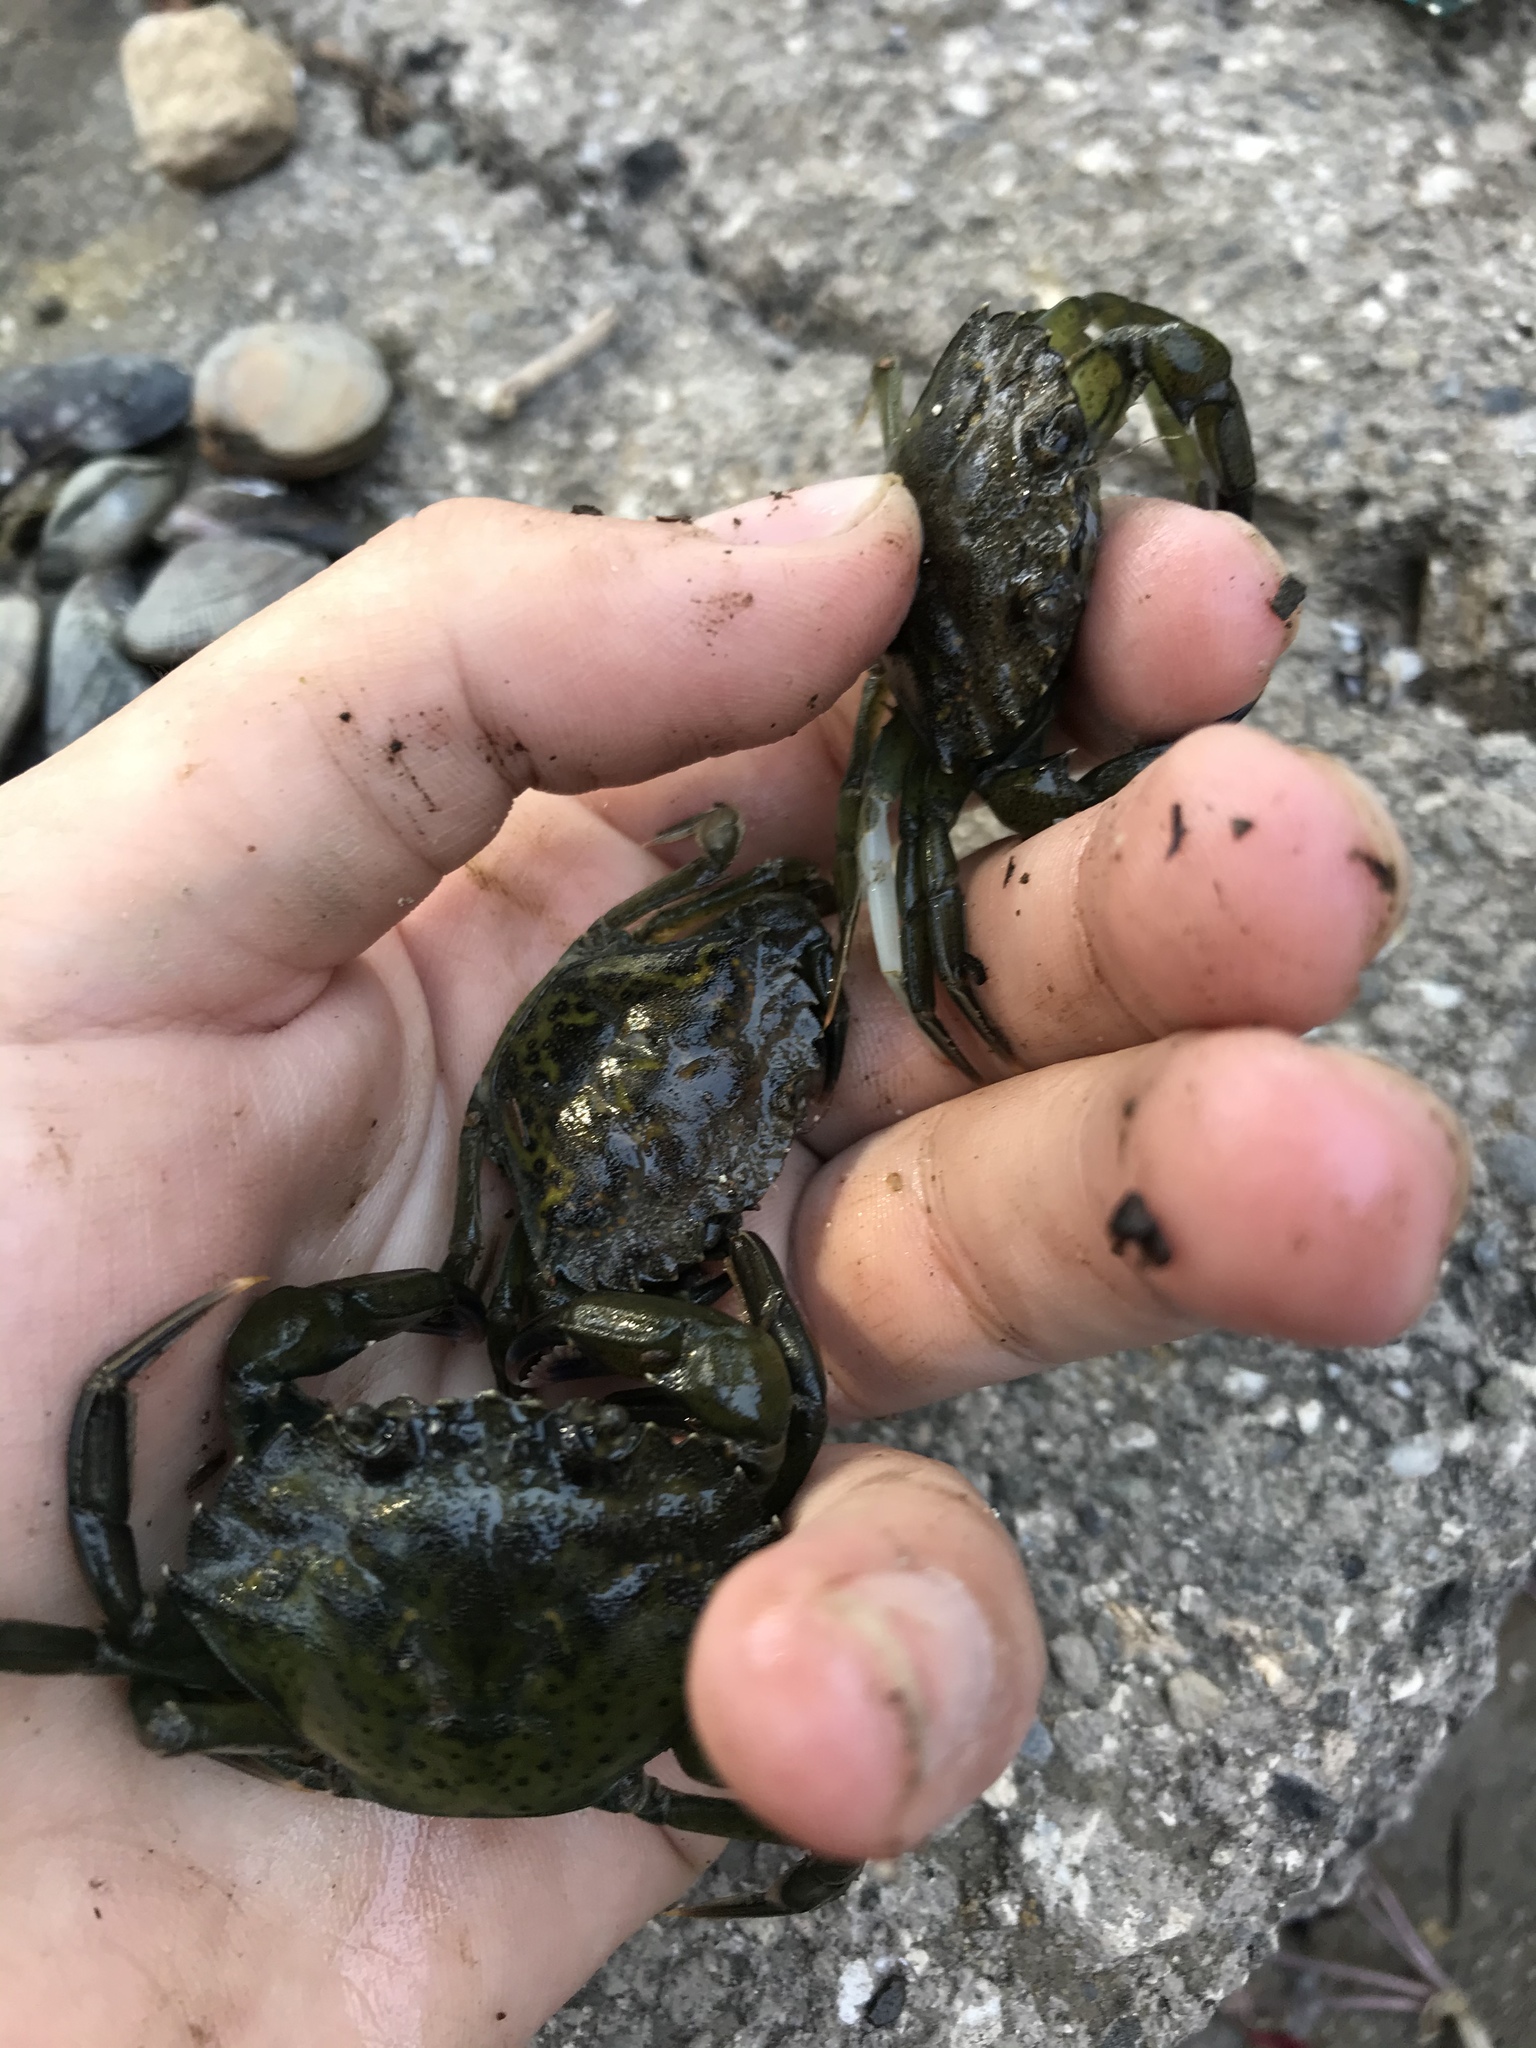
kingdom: Animalia
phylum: Arthropoda
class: Malacostraca
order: Decapoda
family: Carcinidae
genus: Carcinus
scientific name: Carcinus maenas
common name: European green crab
